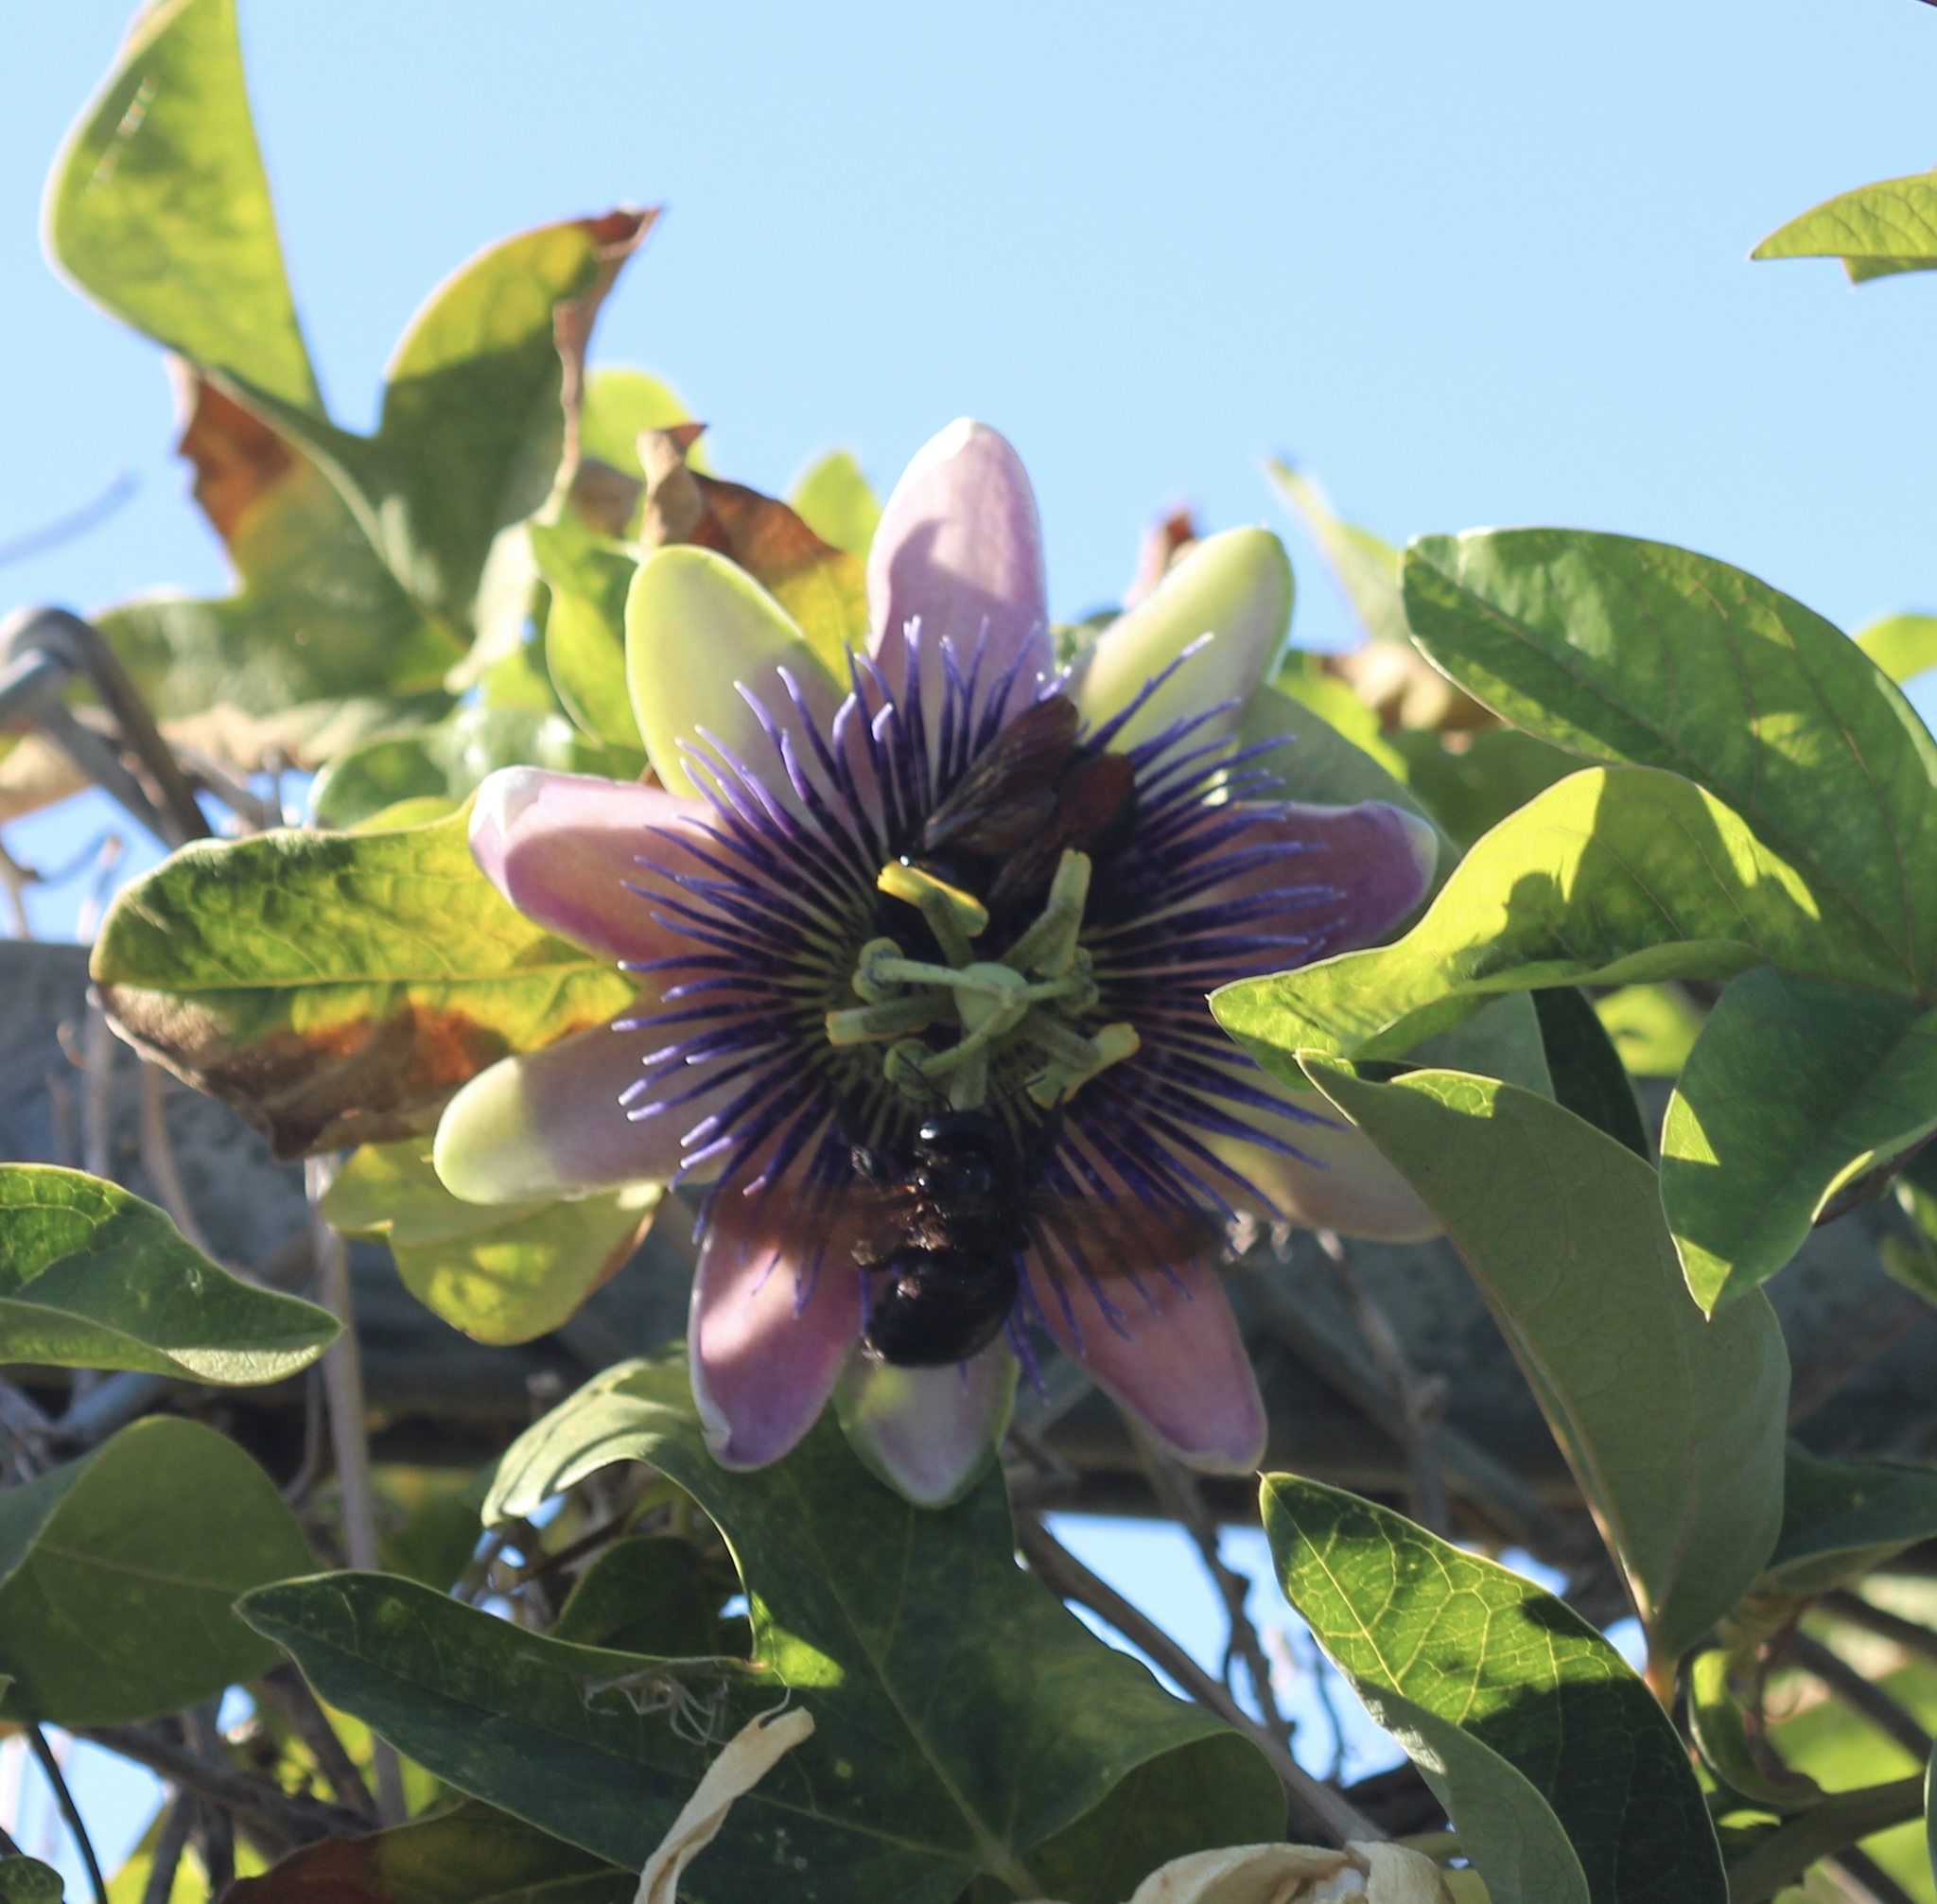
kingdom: Animalia
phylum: Arthropoda
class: Insecta
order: Hymenoptera
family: Apidae
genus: Xylocopa
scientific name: Xylocopa sonorina
